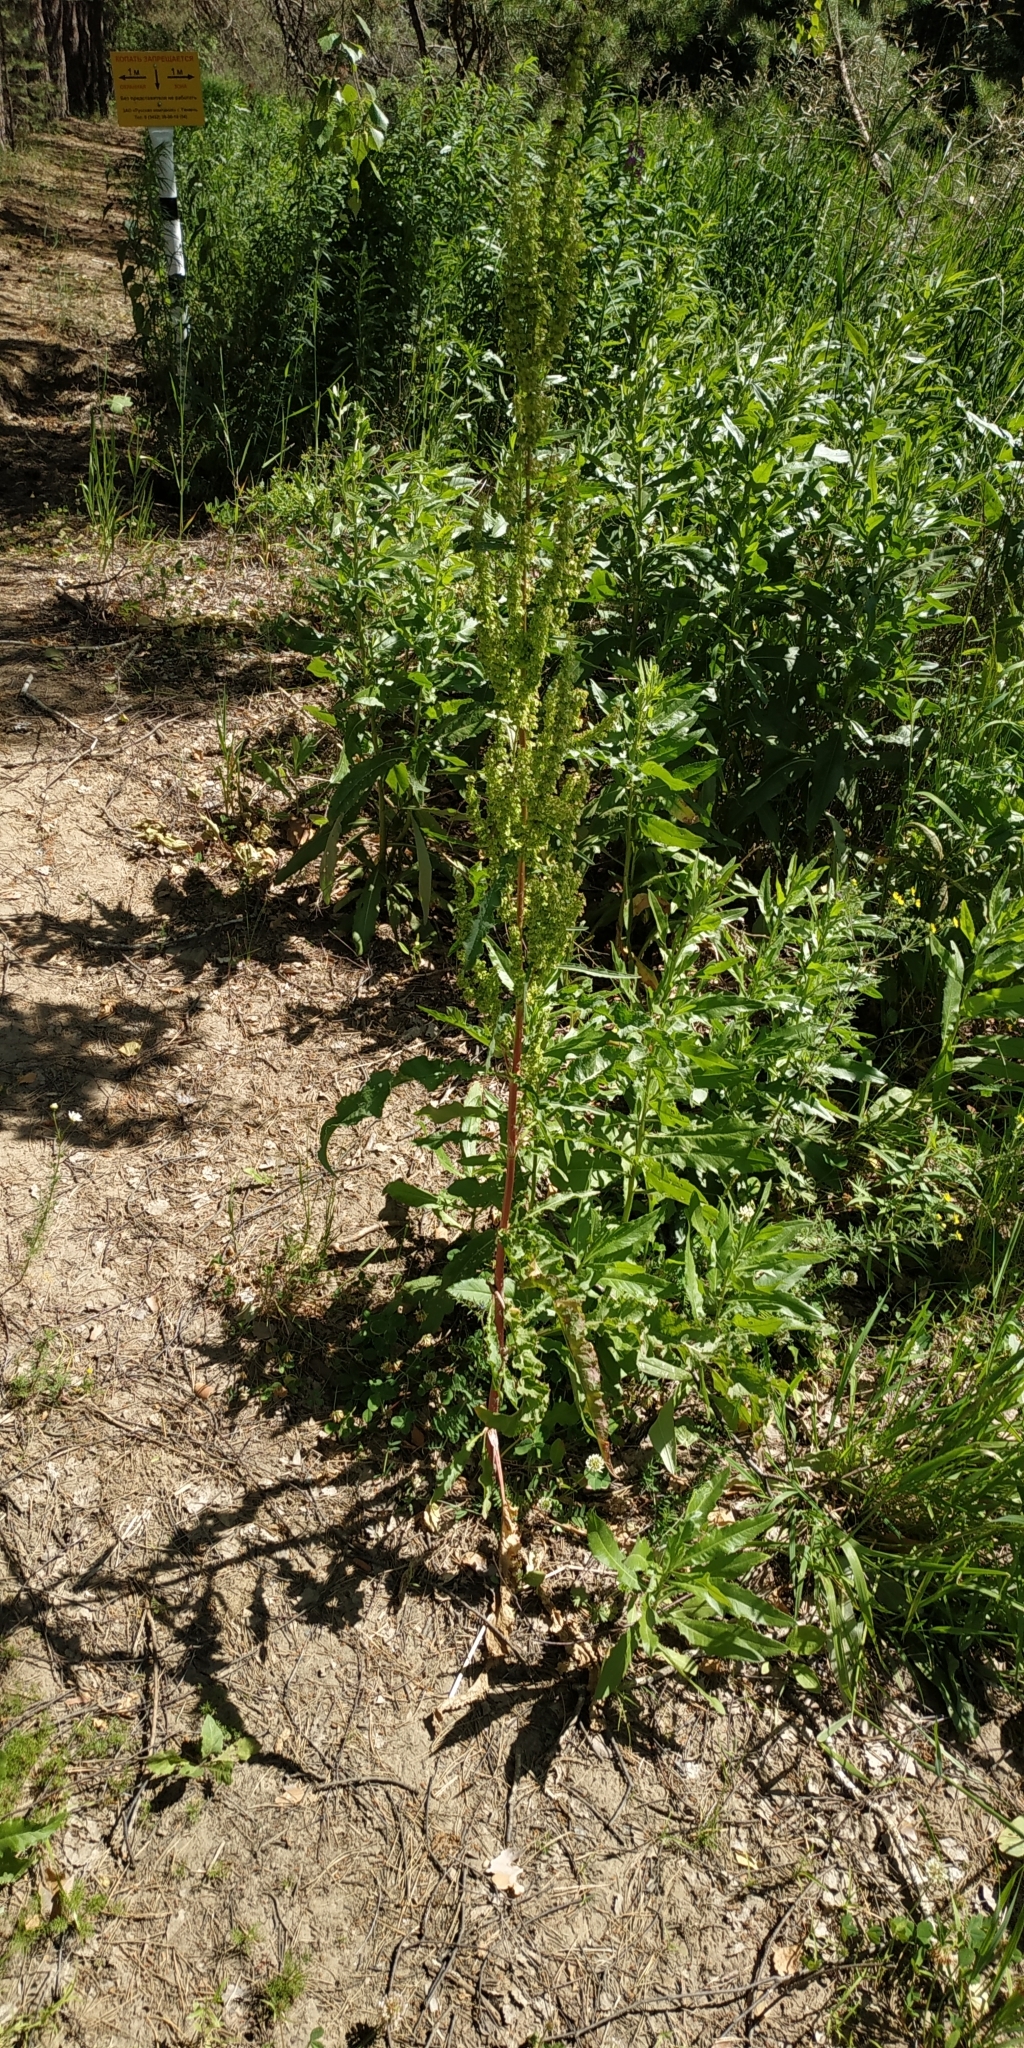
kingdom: Plantae
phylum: Tracheophyta
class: Magnoliopsida
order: Caryophyllales
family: Polygonaceae
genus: Rumex
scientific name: Rumex pseudonatronatus
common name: Field dock
